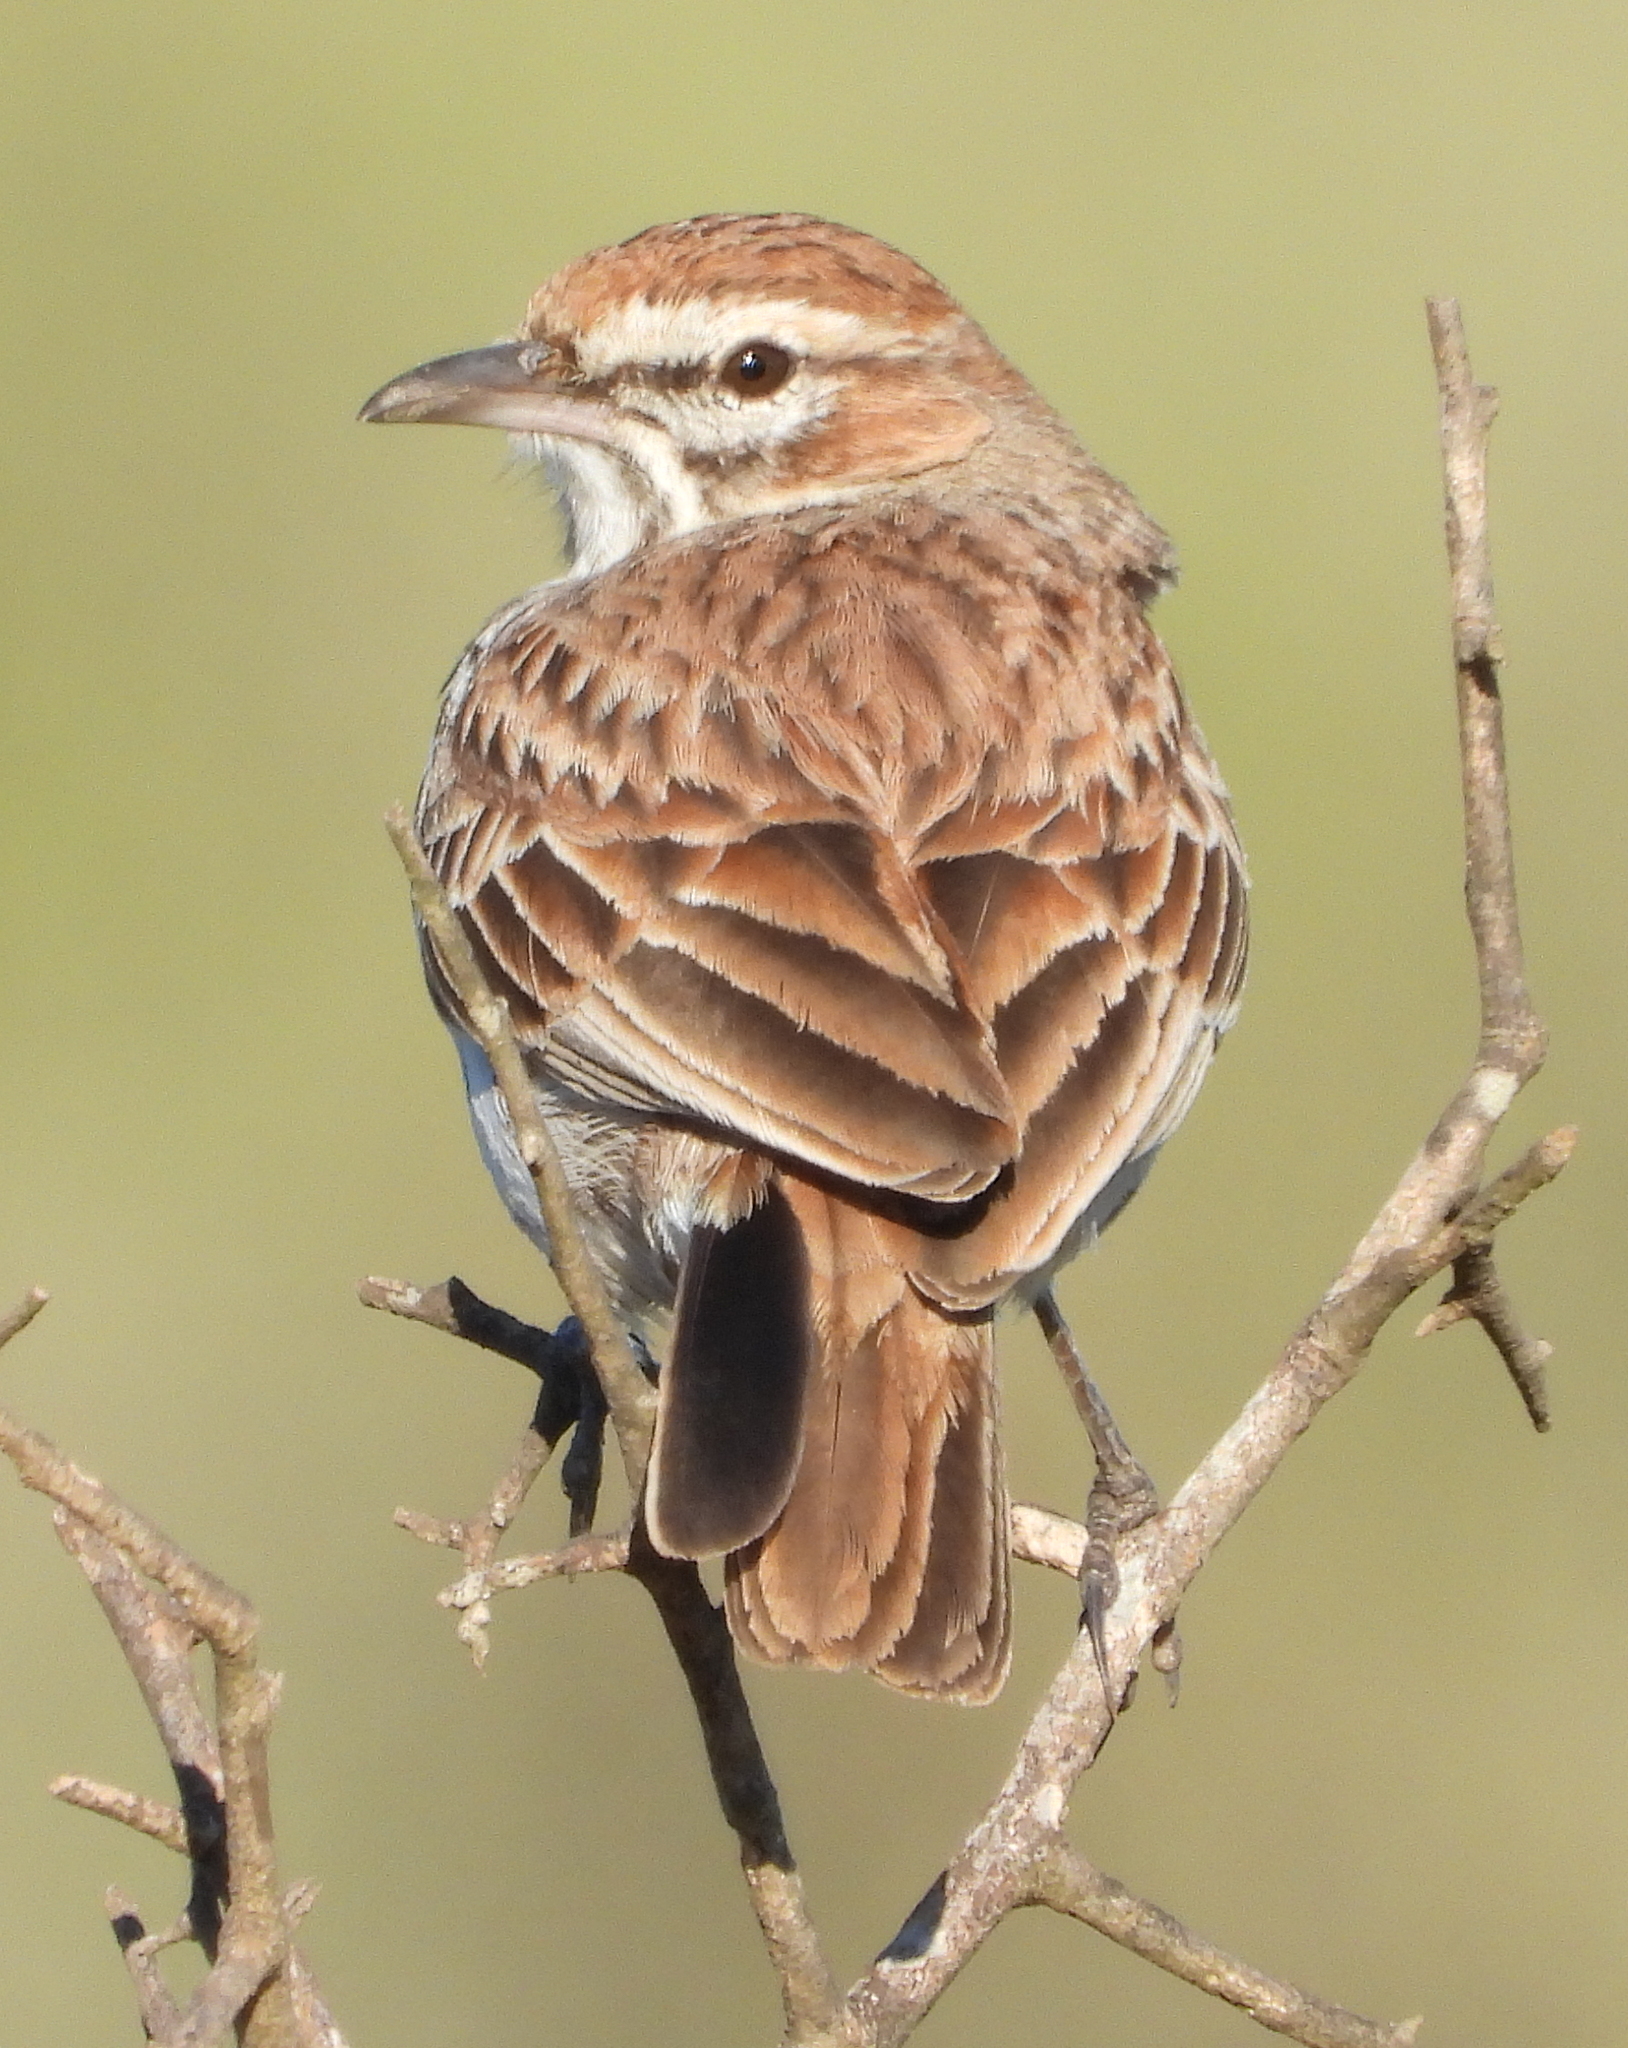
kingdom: Animalia
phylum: Chordata
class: Aves
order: Passeriformes
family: Alaudidae
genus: Calendulauda
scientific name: Calendulauda albescens
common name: Karoo lark
